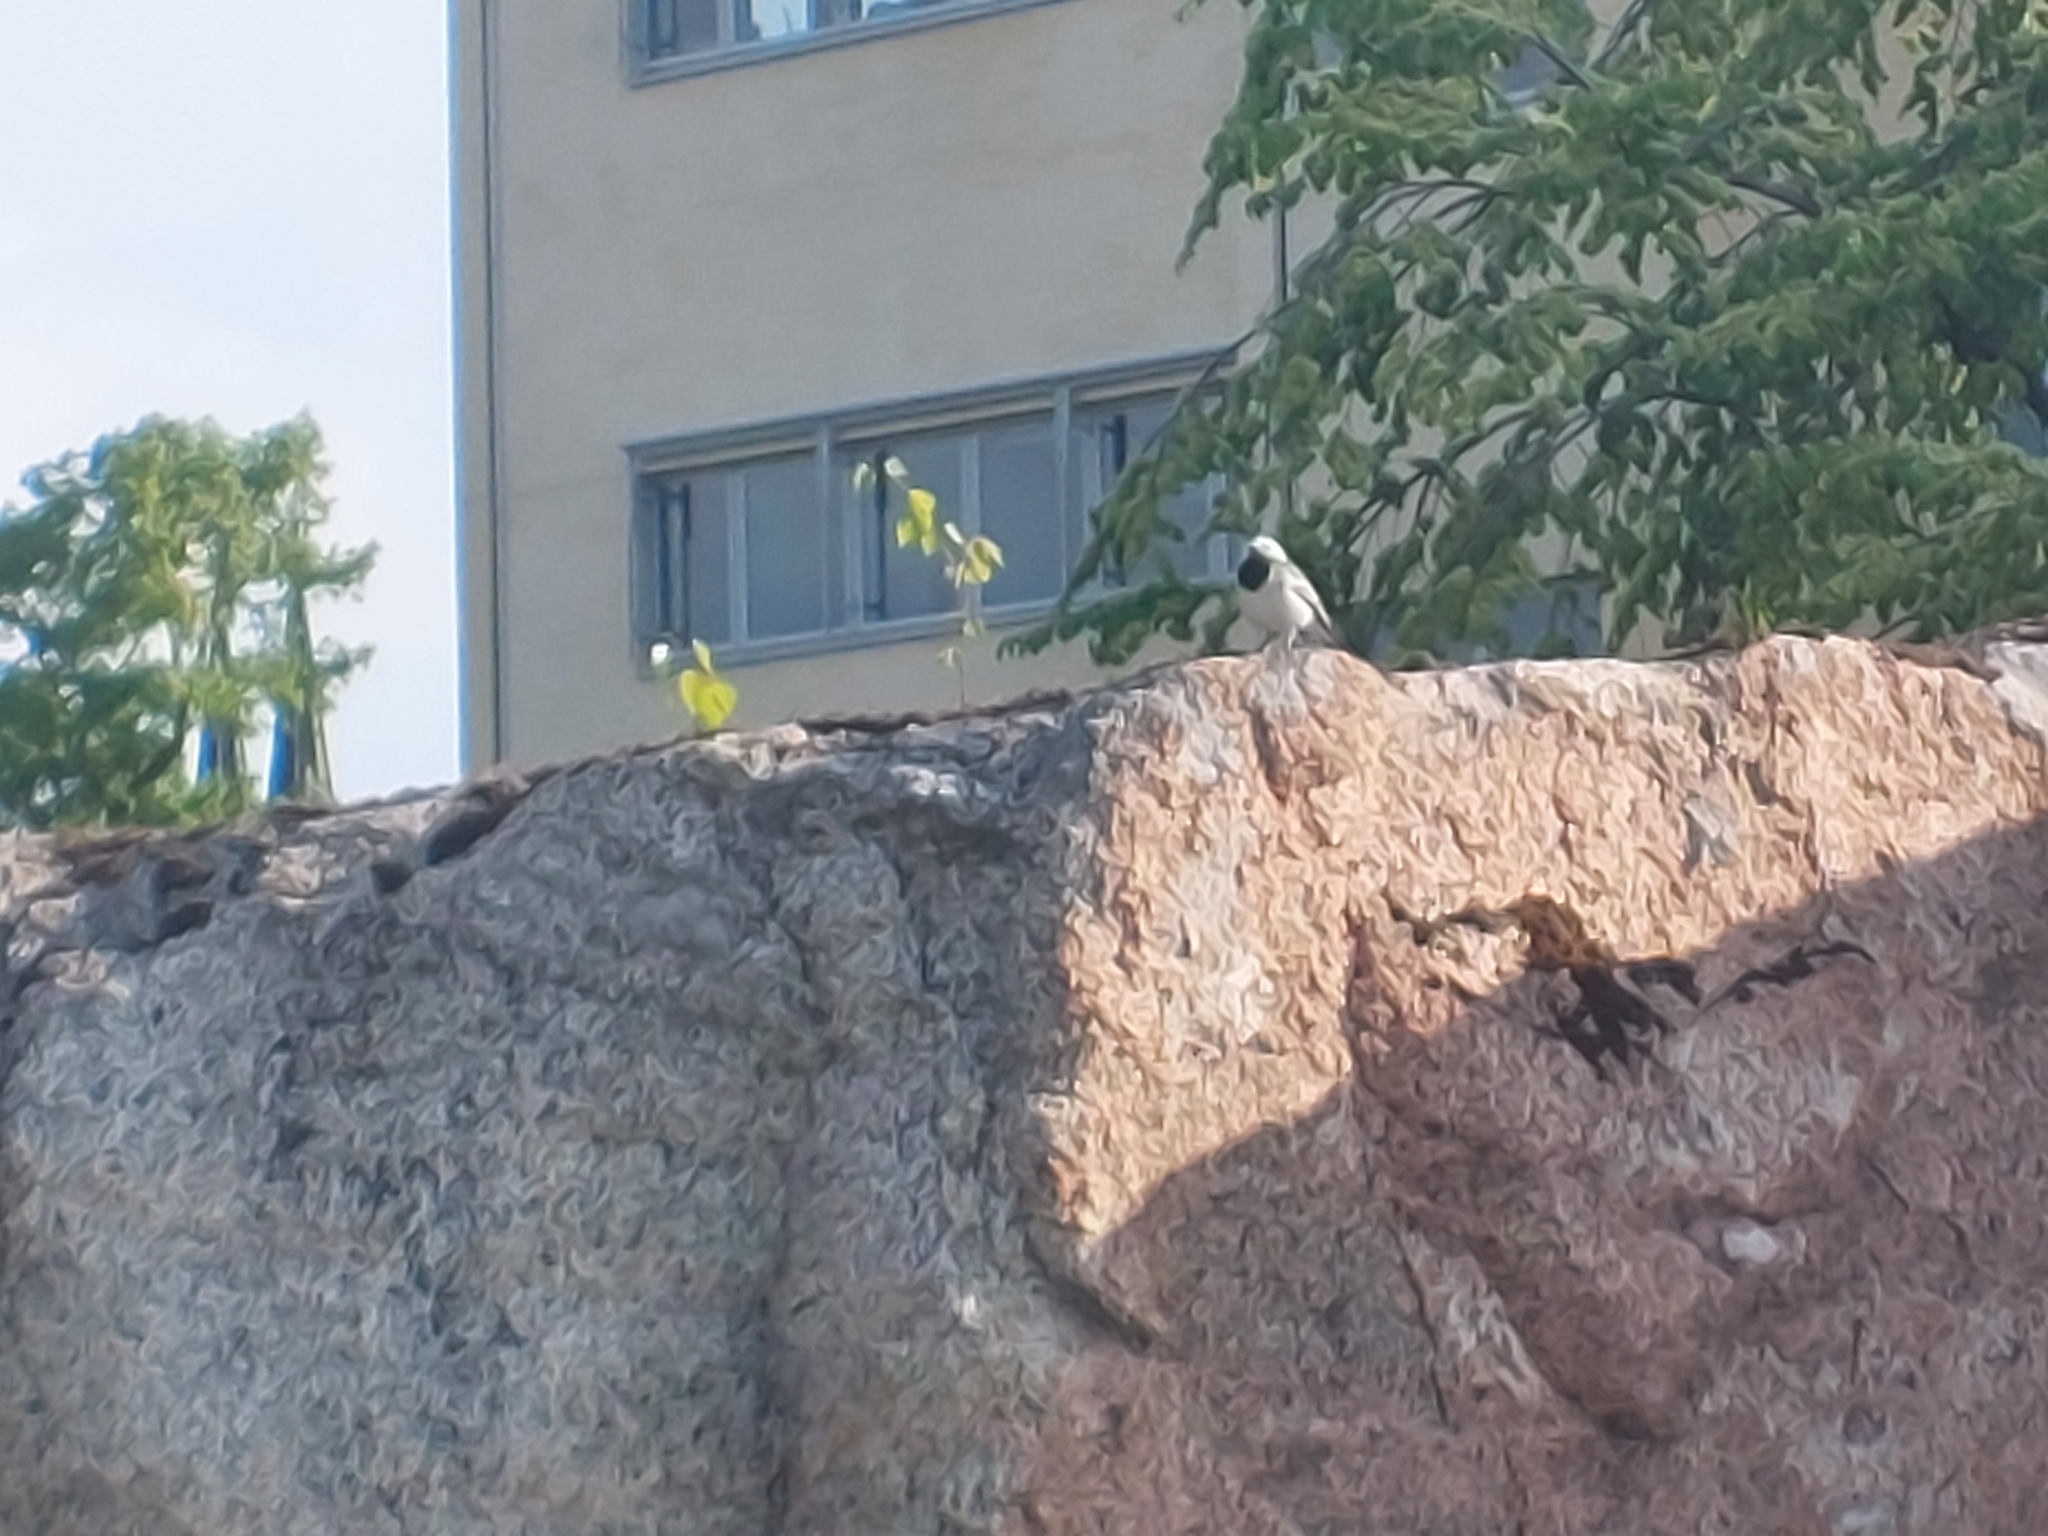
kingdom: Animalia
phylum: Chordata
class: Aves
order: Passeriformes
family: Motacillidae
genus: Motacilla
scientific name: Motacilla alba
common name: White wagtail
